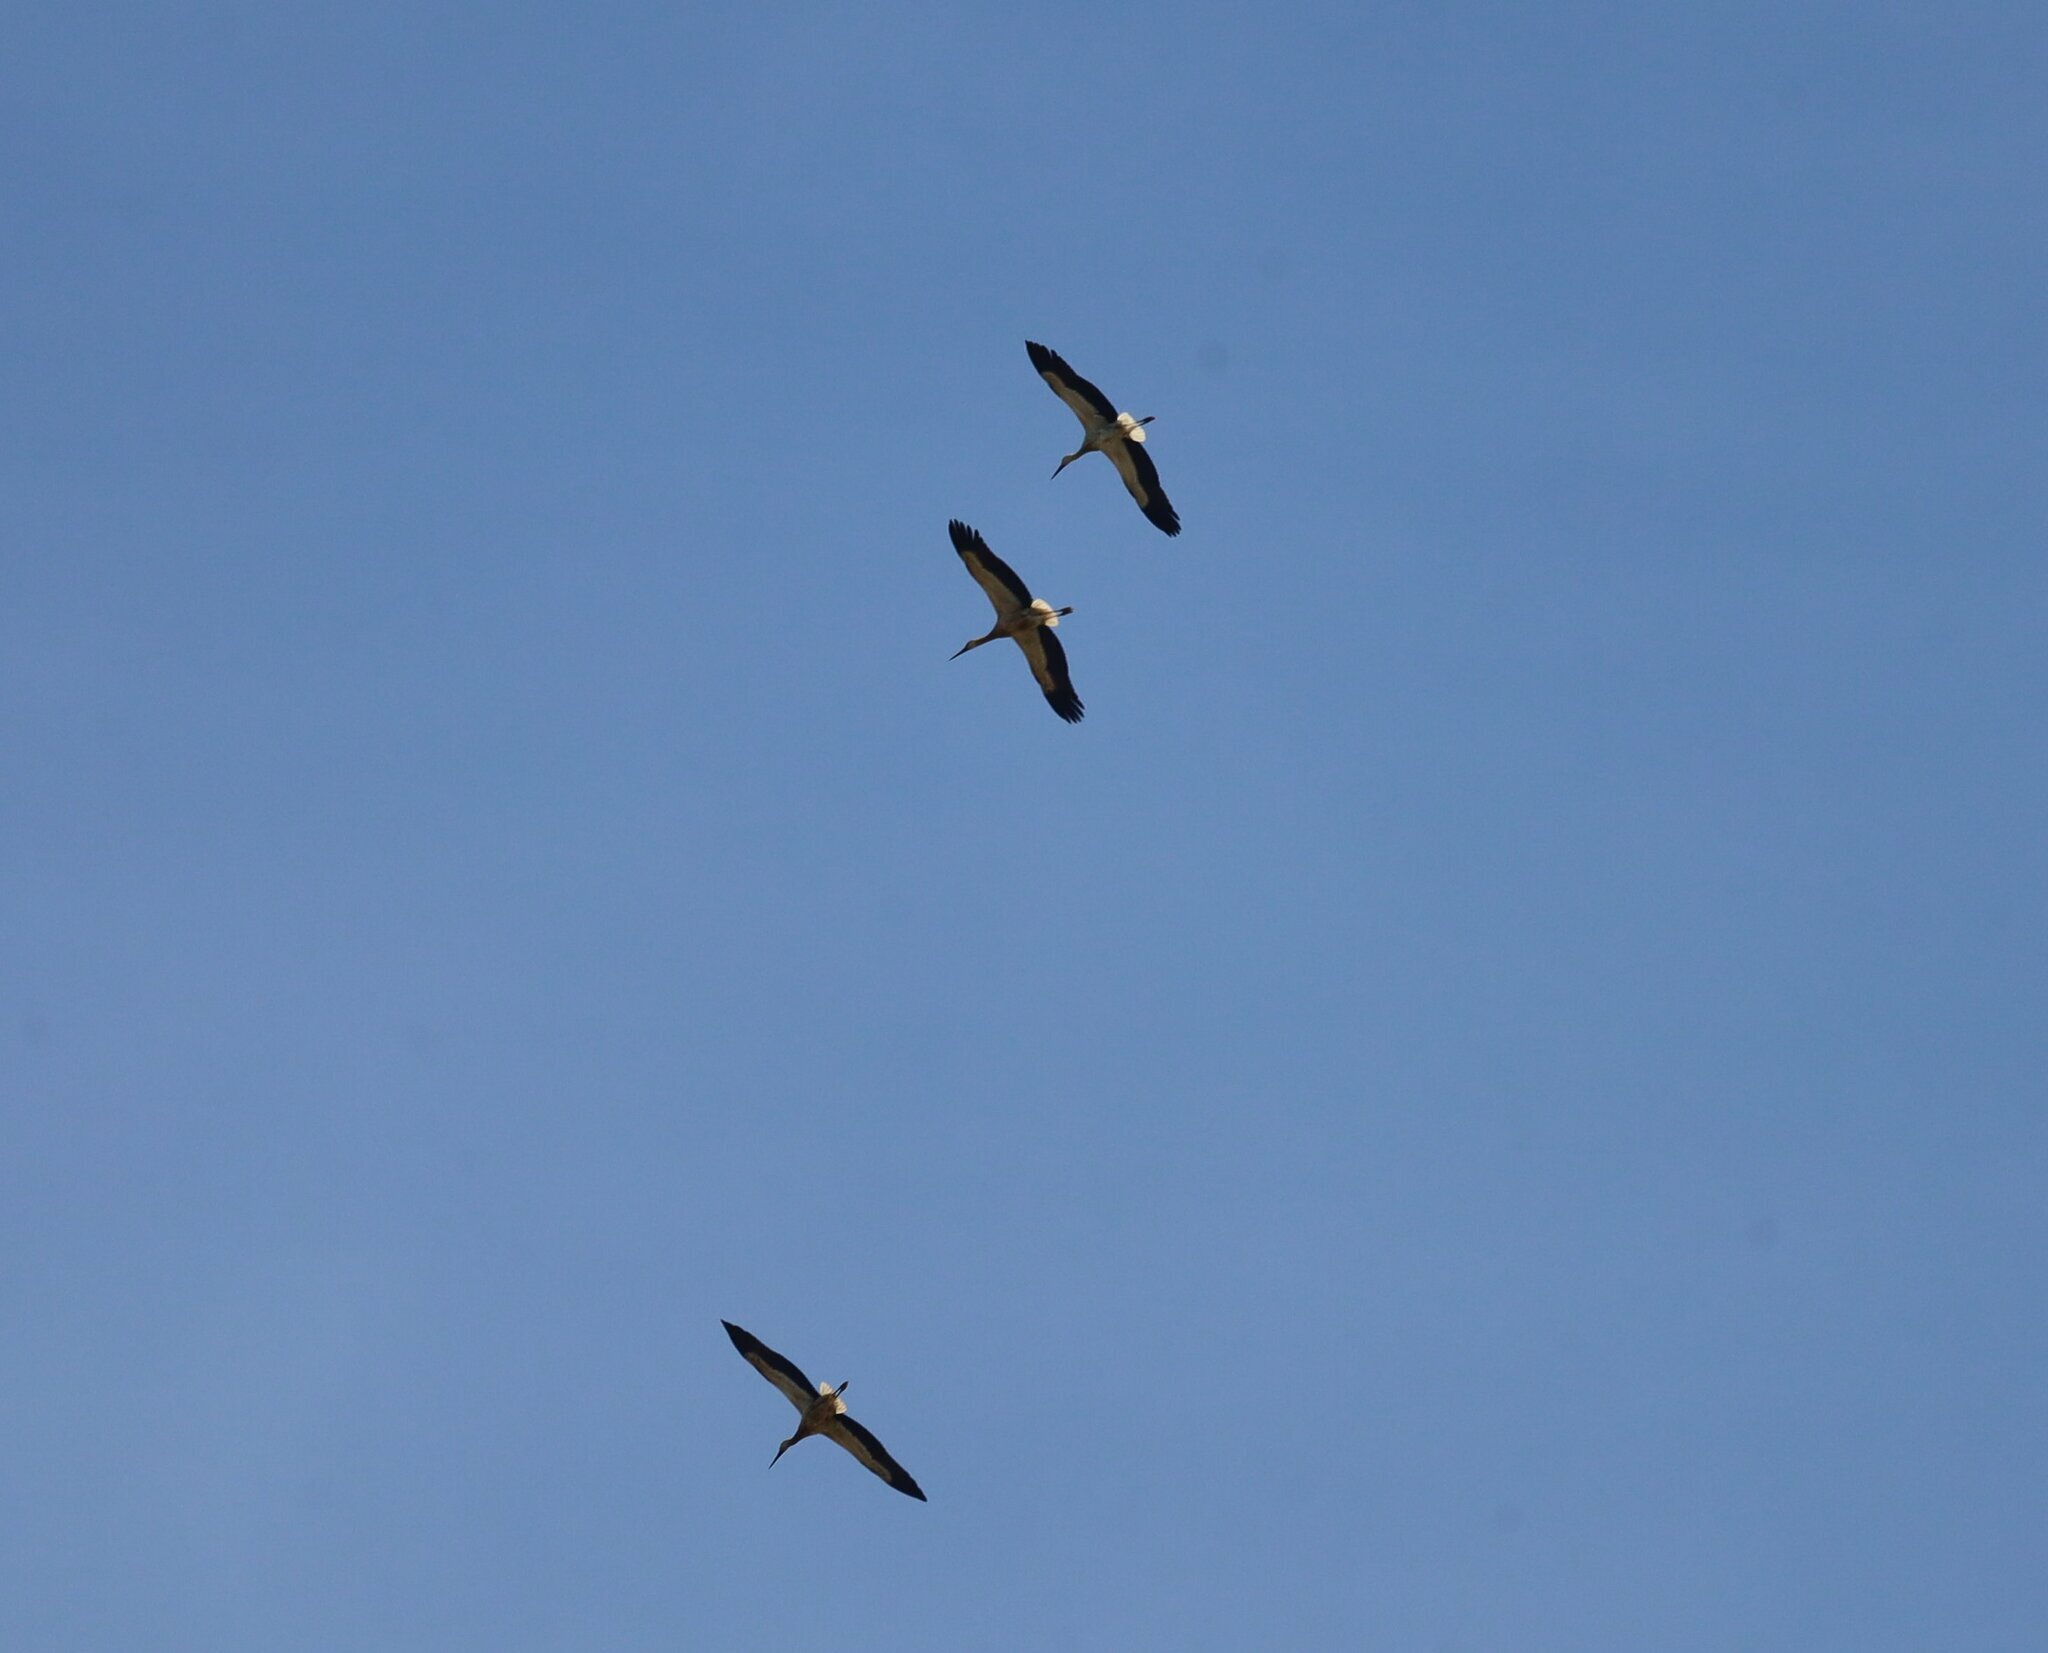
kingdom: Animalia
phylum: Chordata
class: Aves
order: Ciconiiformes
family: Ciconiidae
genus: Ciconia
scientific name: Ciconia ciconia
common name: White stork
